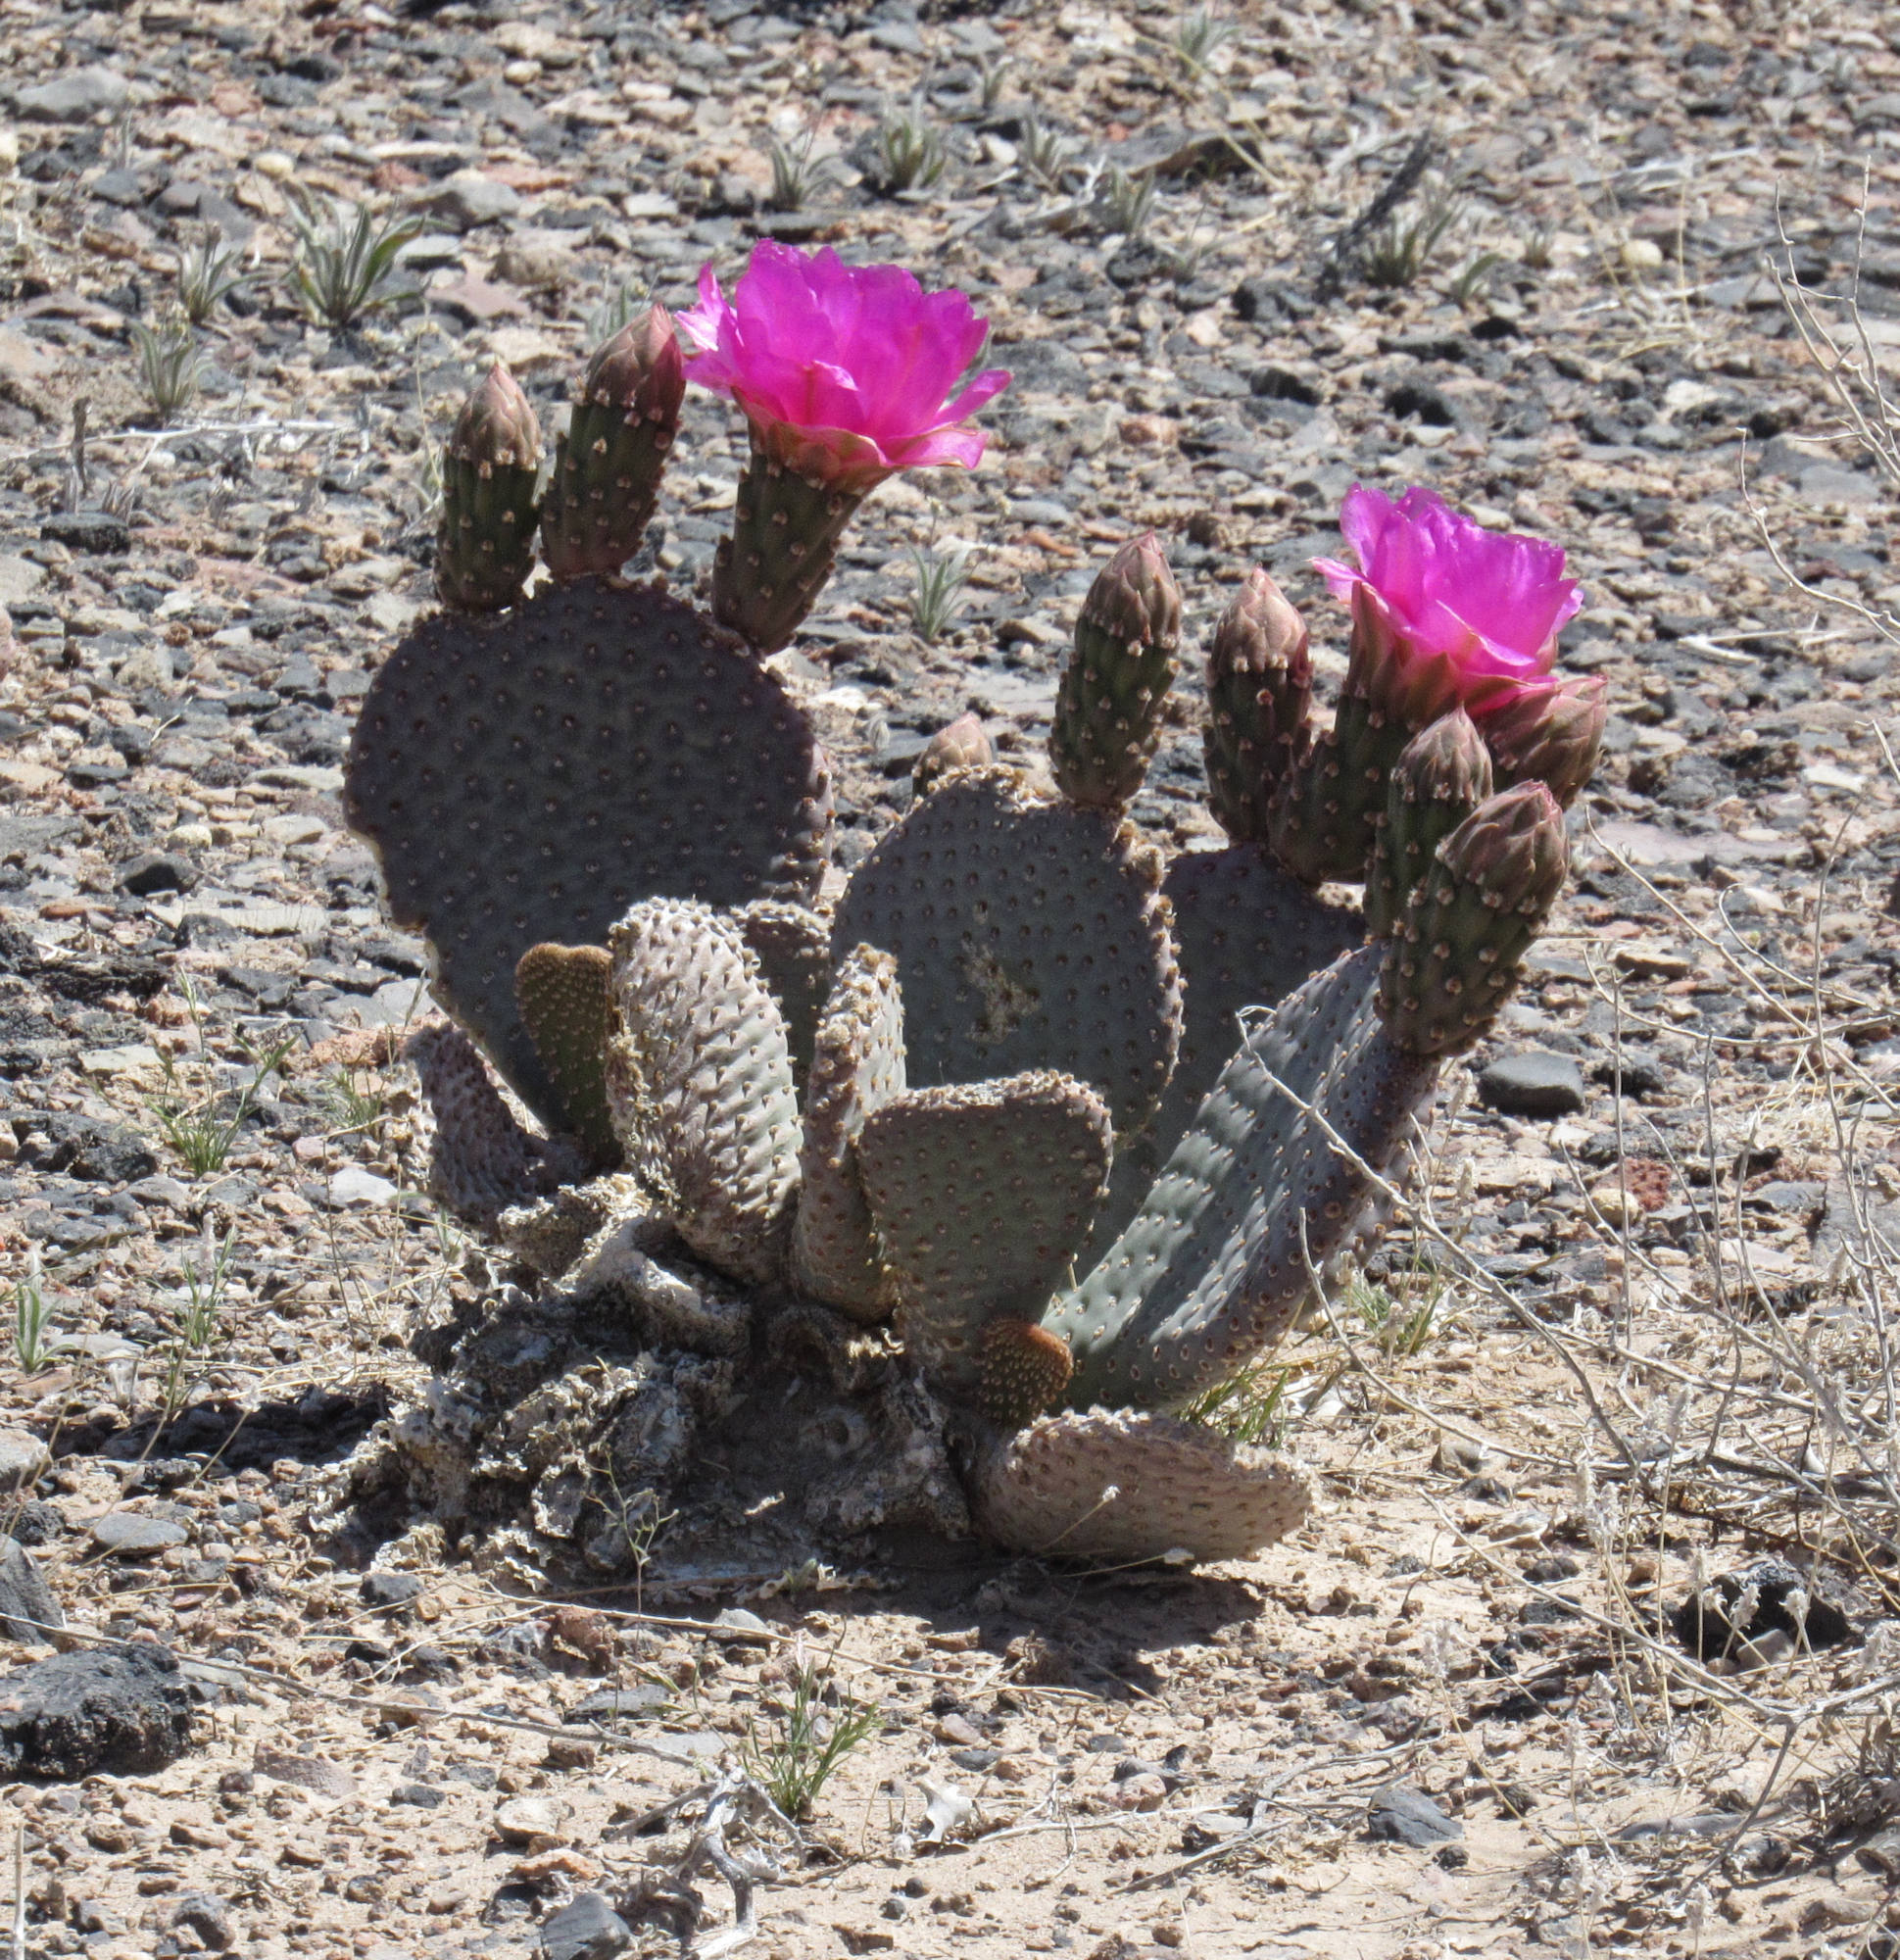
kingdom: Plantae
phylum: Tracheophyta
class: Magnoliopsida
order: Caryophyllales
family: Cactaceae
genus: Opuntia
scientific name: Opuntia basilaris
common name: Beavertail prickly-pear
